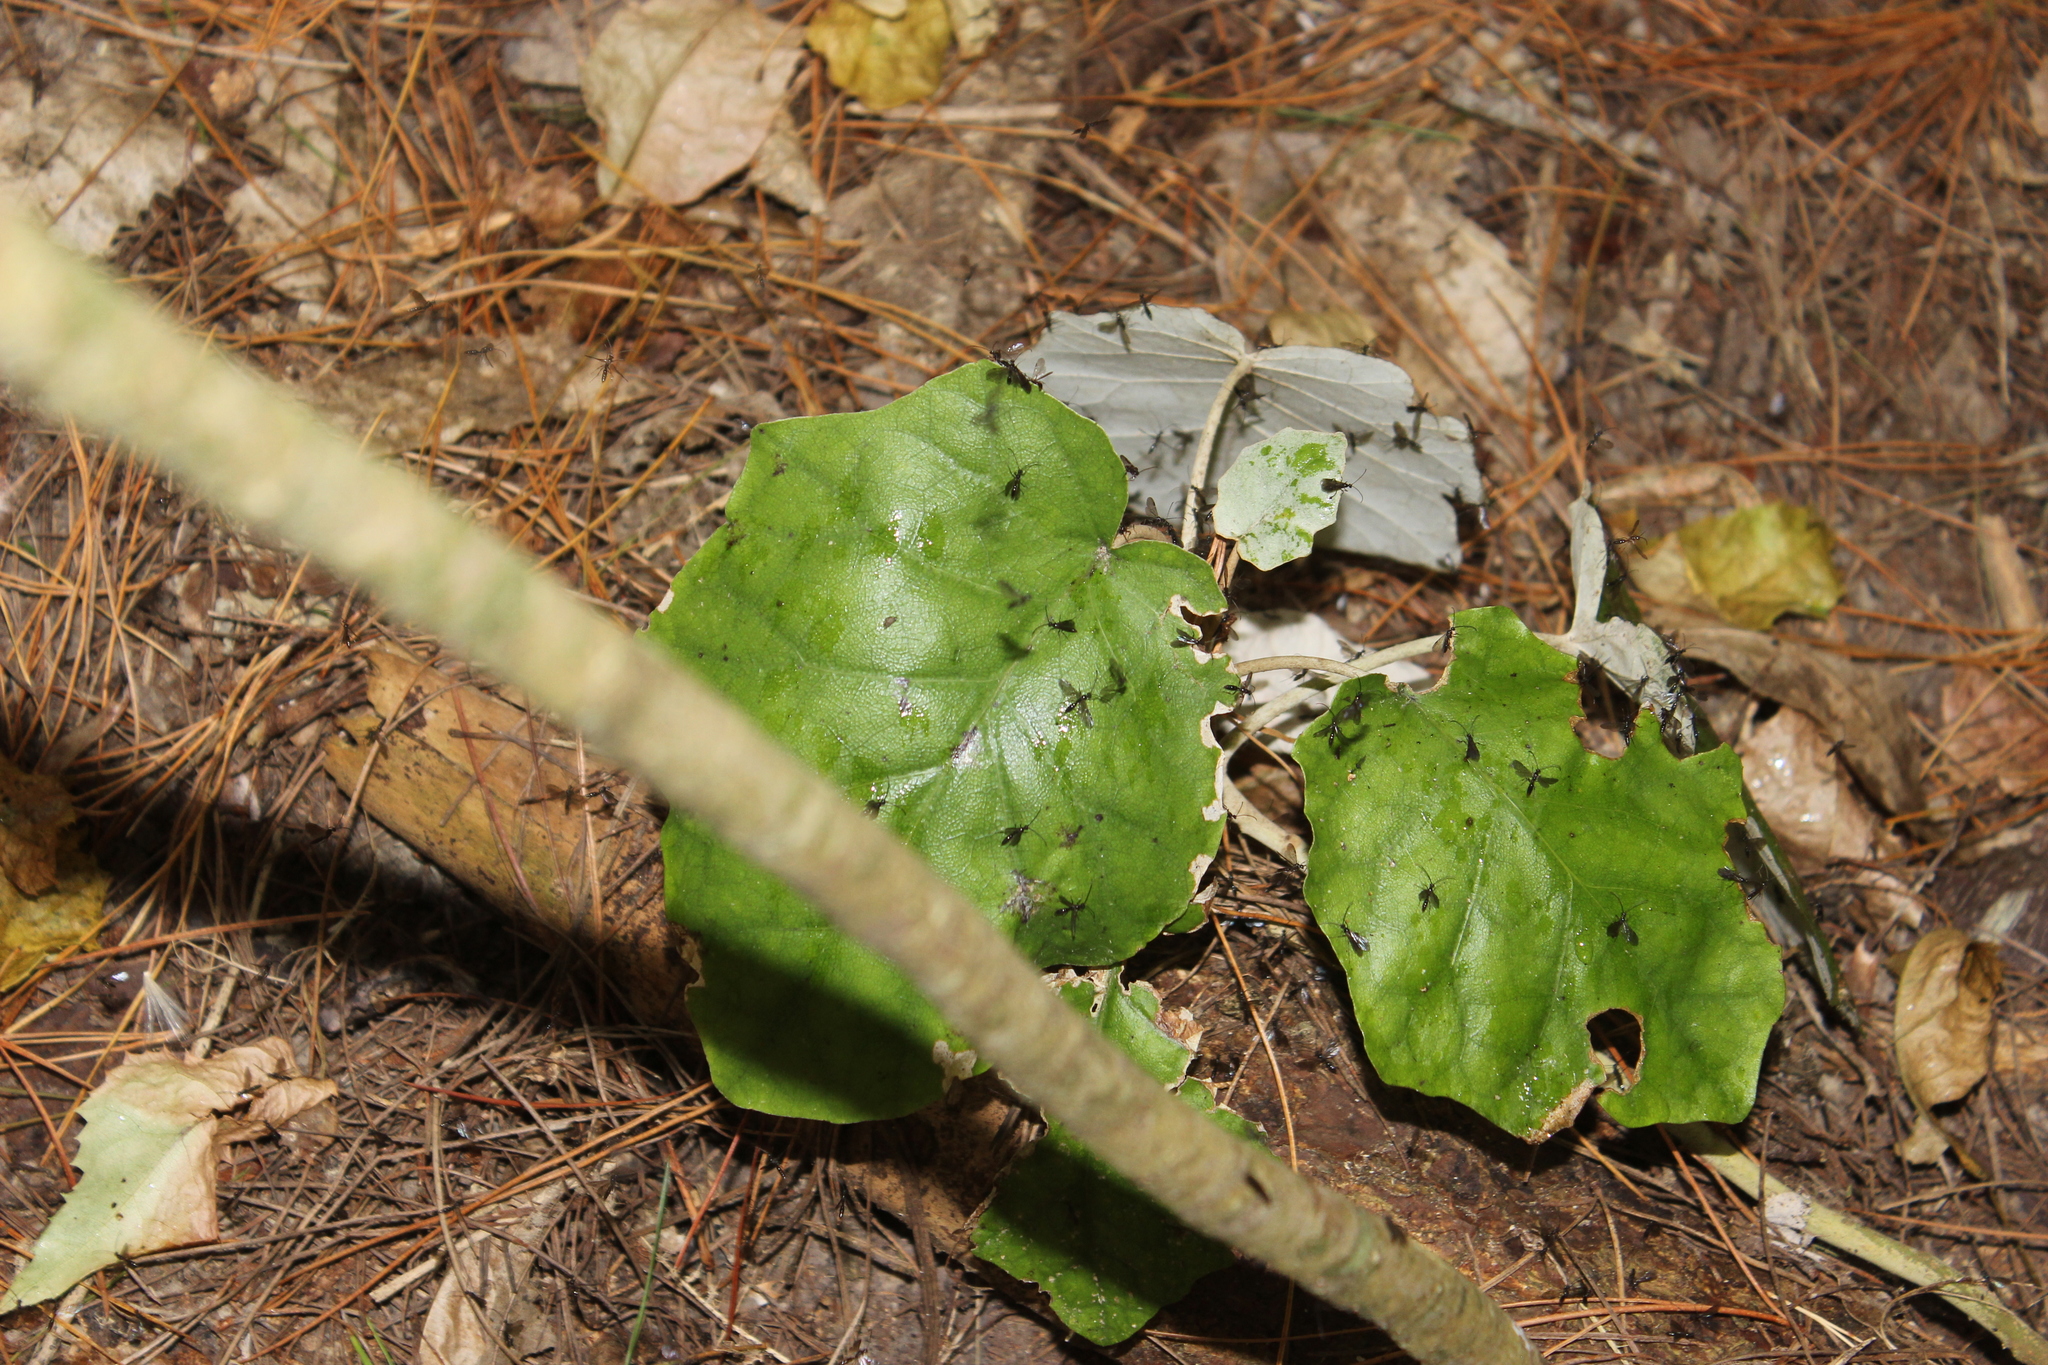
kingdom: Plantae
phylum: Tracheophyta
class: Magnoliopsida
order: Asterales
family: Asteraceae
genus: Brachyglottis
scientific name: Brachyglottis repanda
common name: Hedge ragwort
